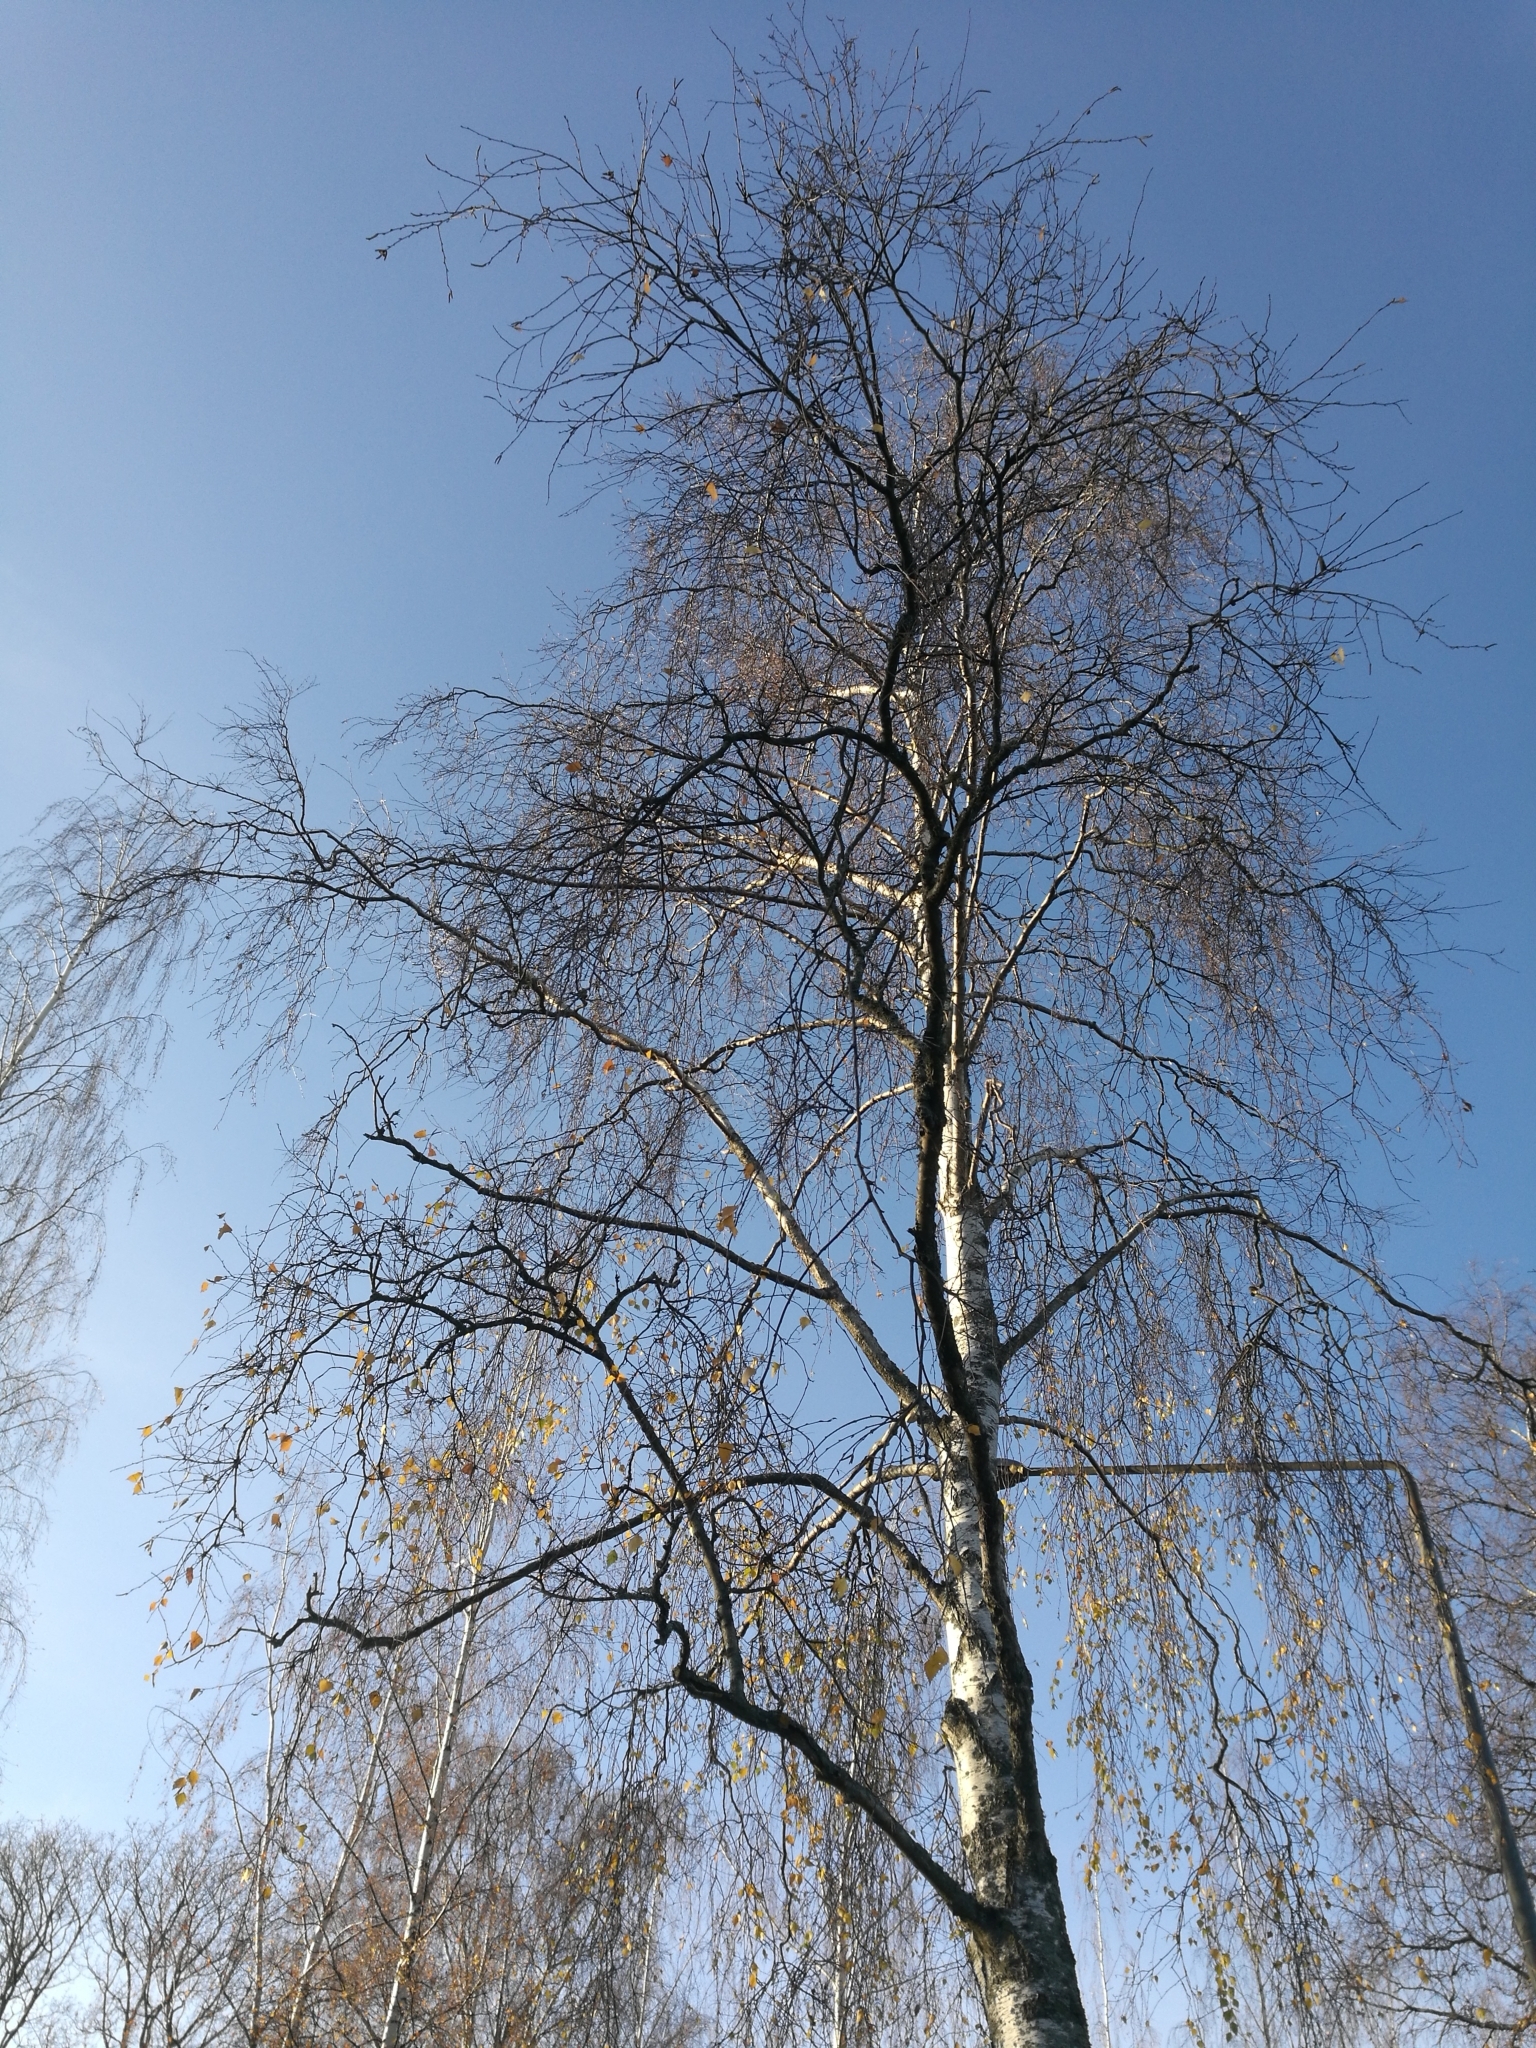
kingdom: Plantae
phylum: Tracheophyta
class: Magnoliopsida
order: Fagales
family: Betulaceae
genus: Betula
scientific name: Betula pendula
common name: Silver birch
